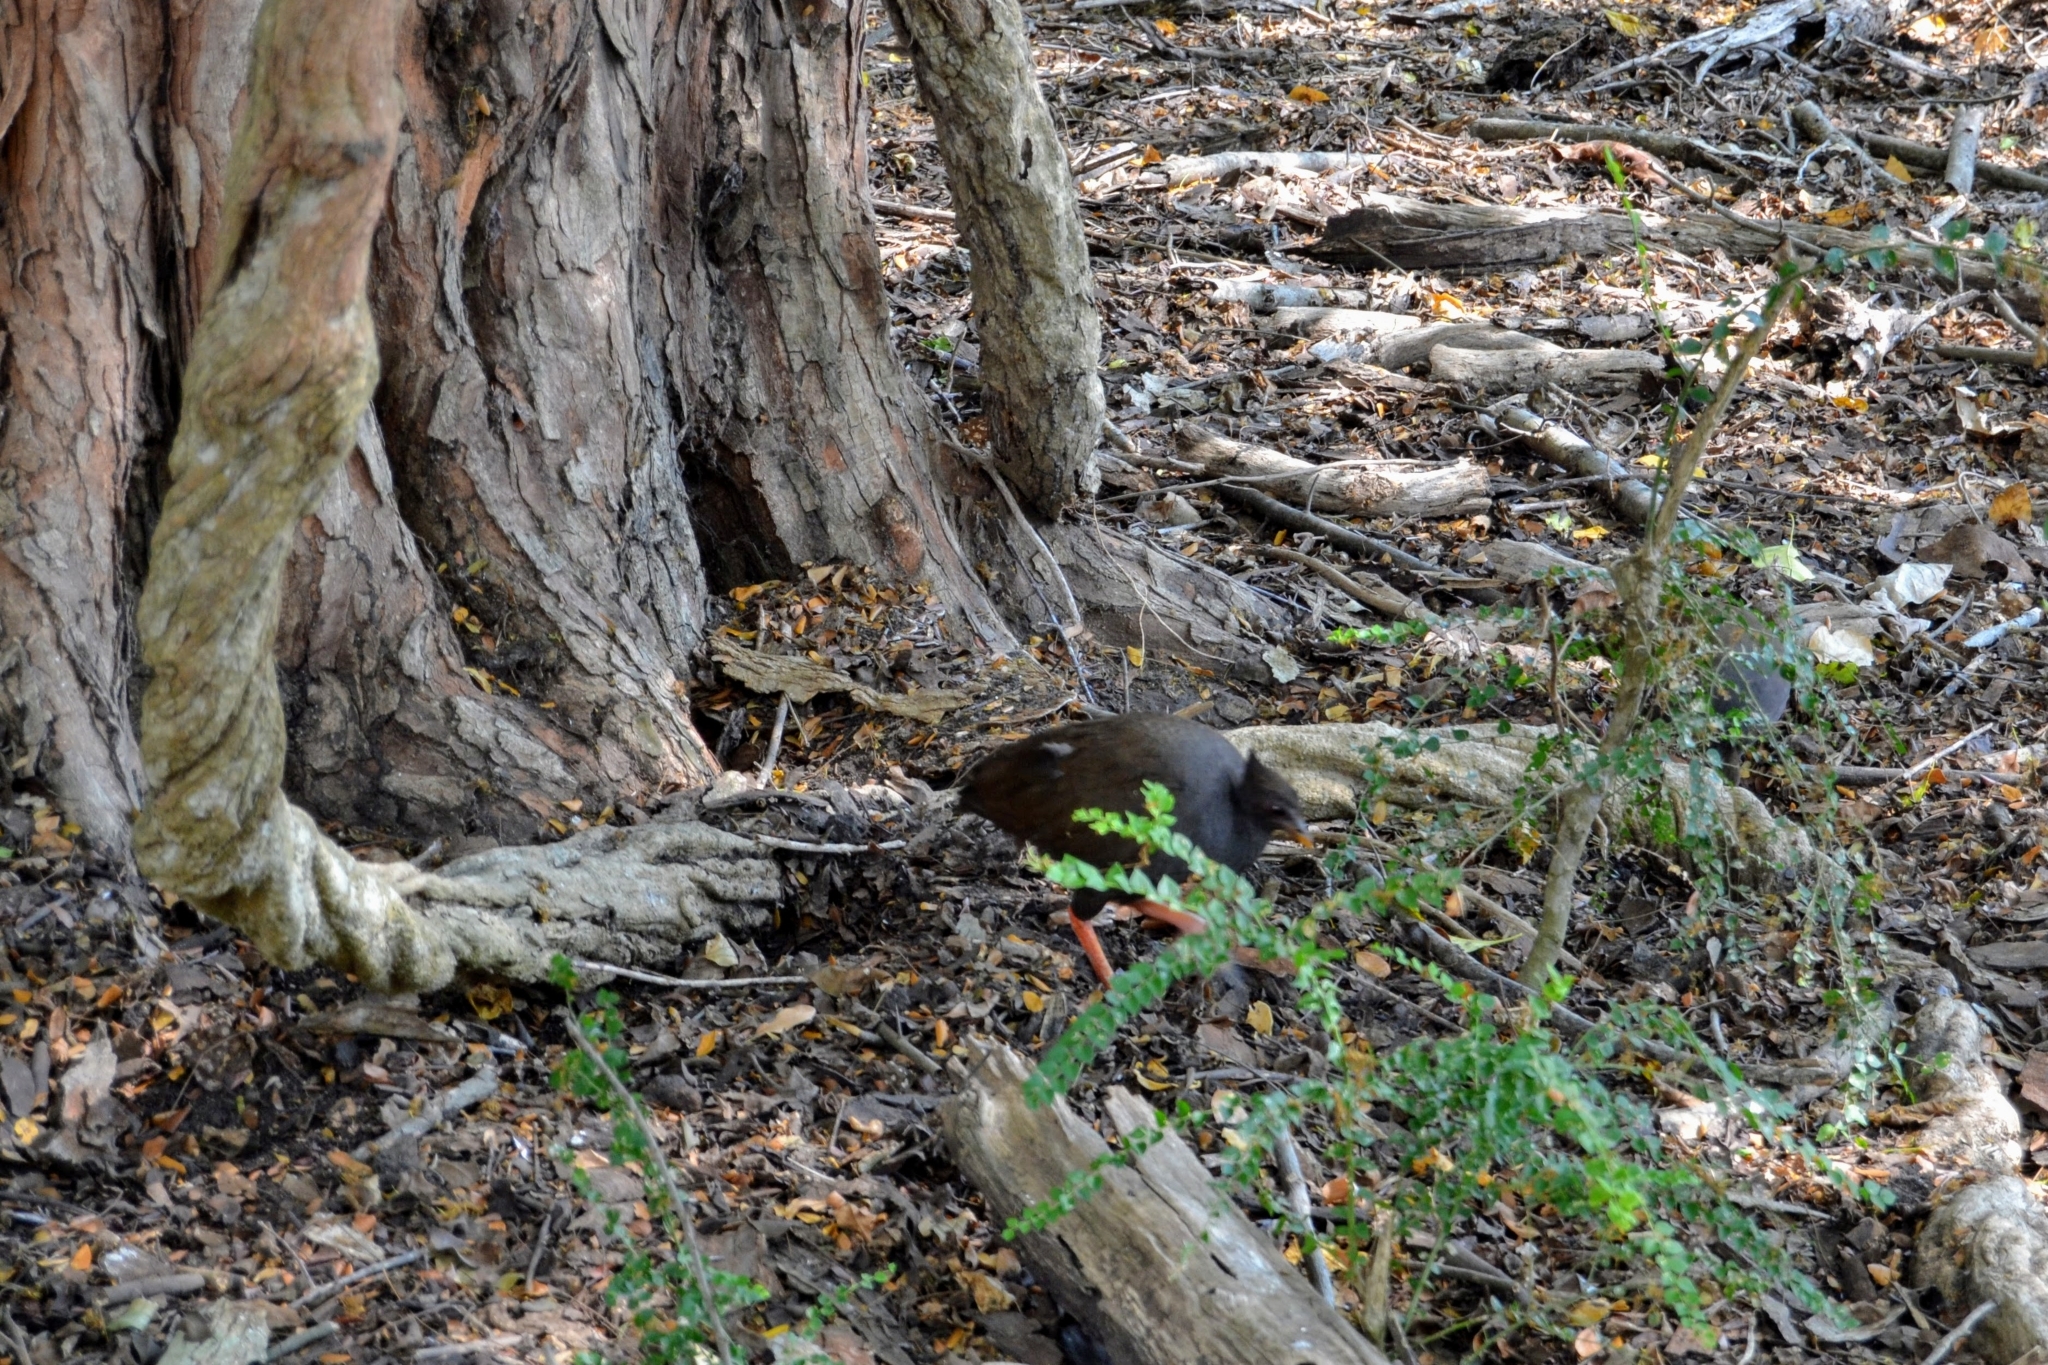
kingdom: Animalia
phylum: Chordata
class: Aves
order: Galliformes
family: Megapodiidae
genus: Megapodius
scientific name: Megapodius reinwardt
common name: Orange-footed scrubfowl
